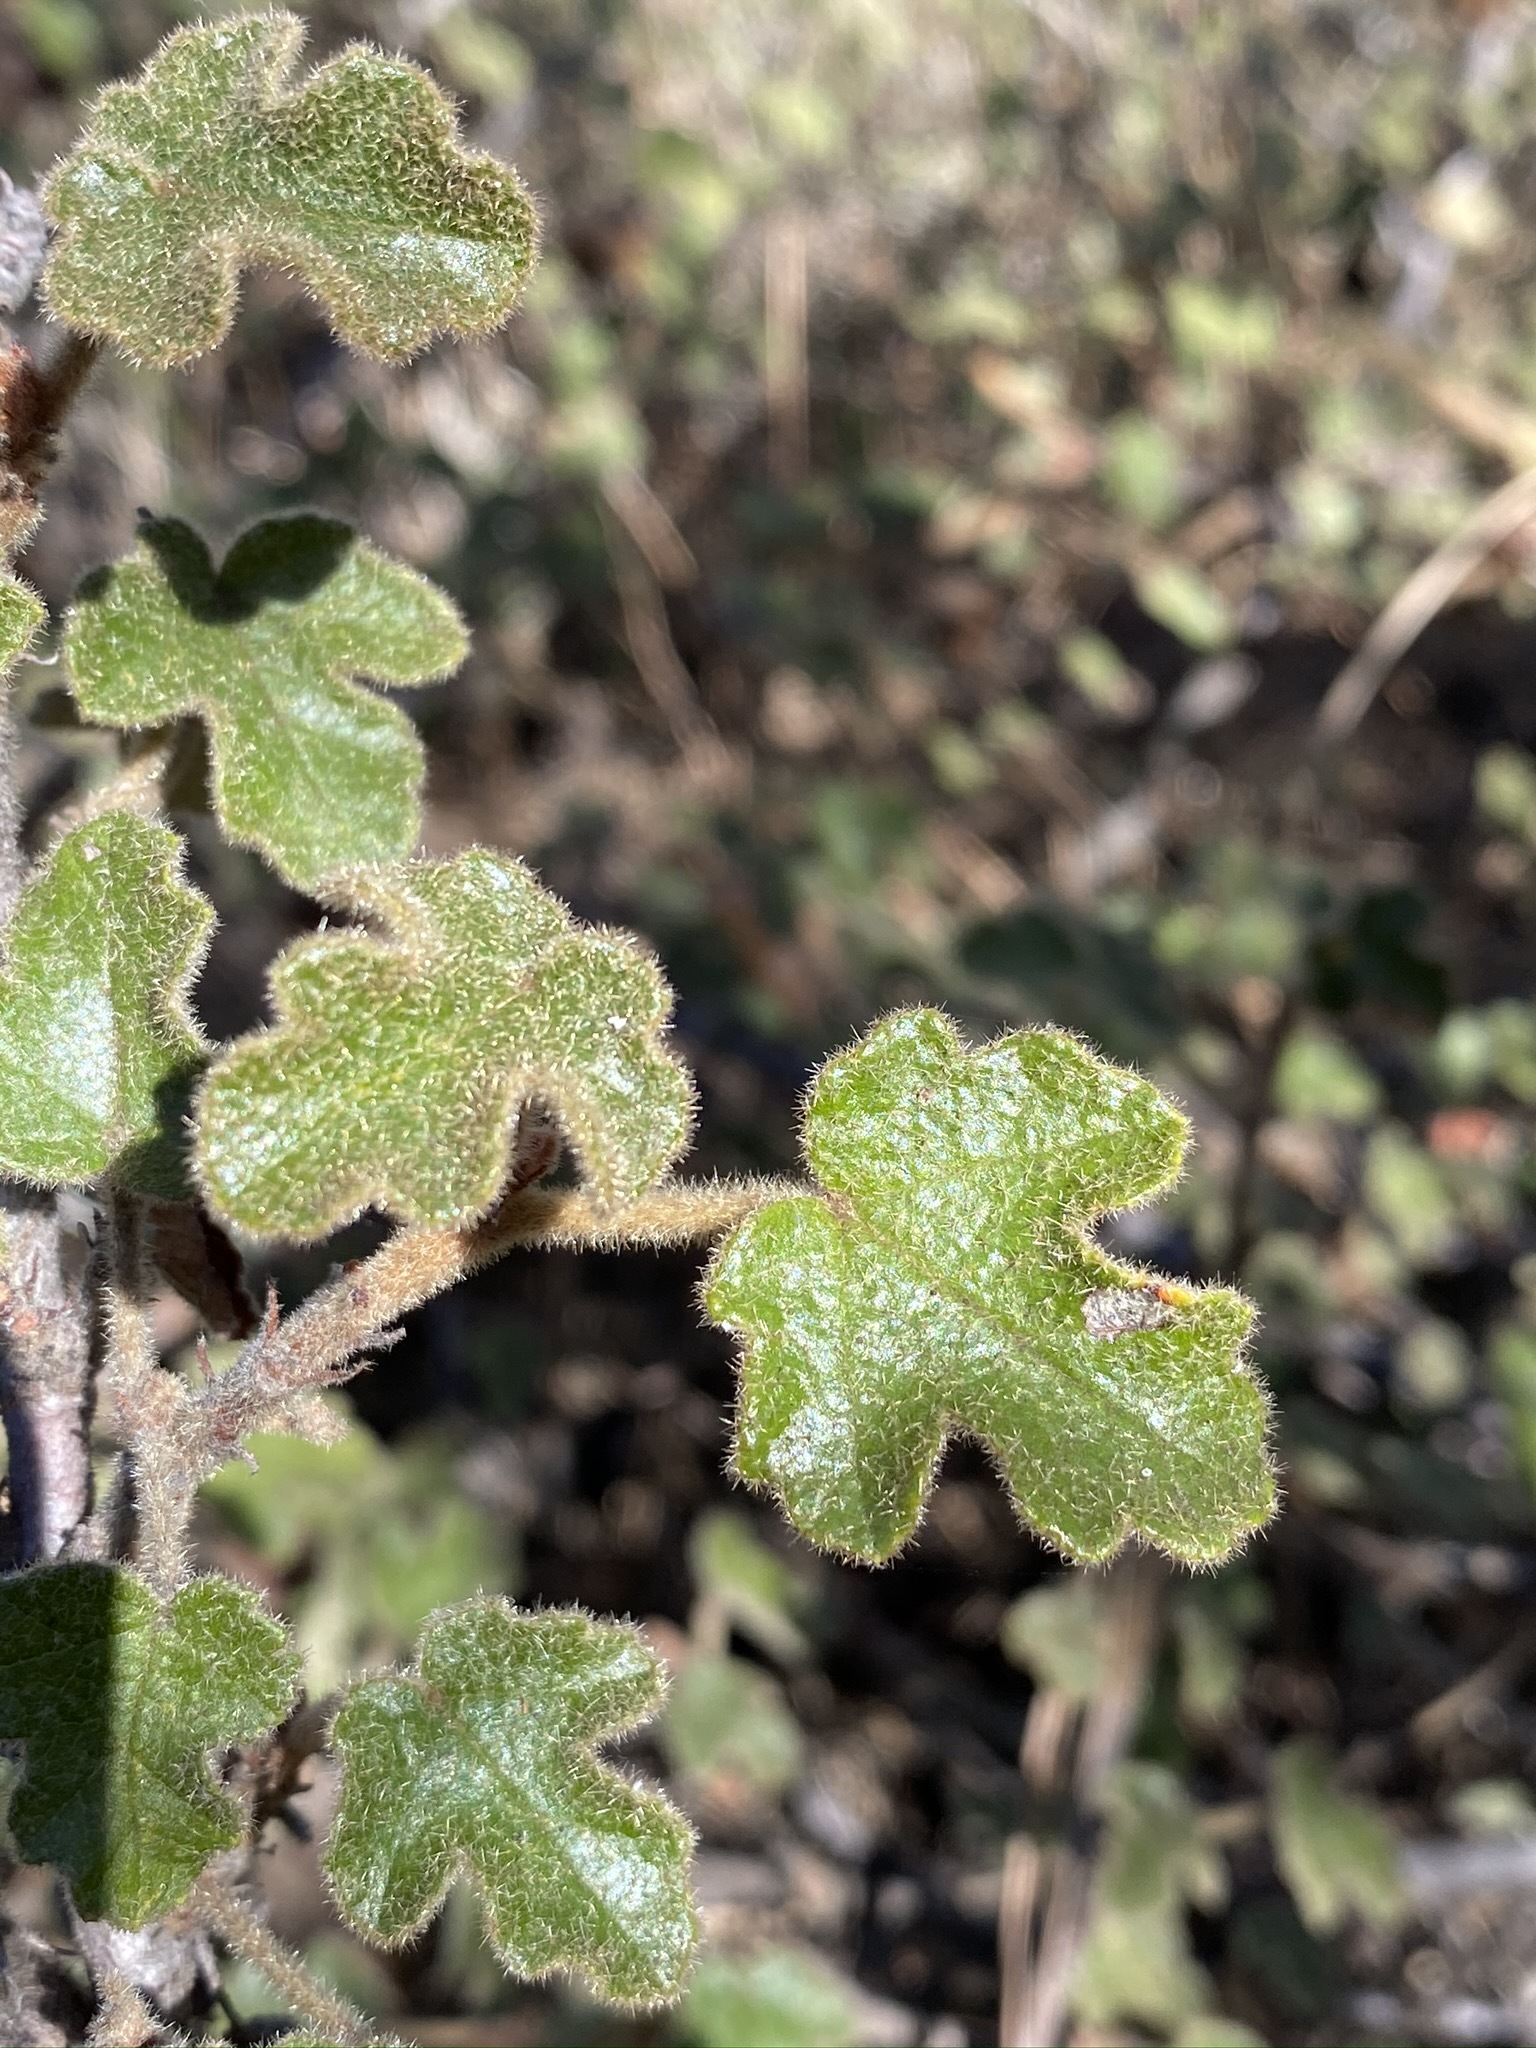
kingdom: Plantae
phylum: Tracheophyta
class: Magnoliopsida
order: Malvales
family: Malvaceae
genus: Fremontodendron
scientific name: Fremontodendron decumbens
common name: Pine hill flannelbush
